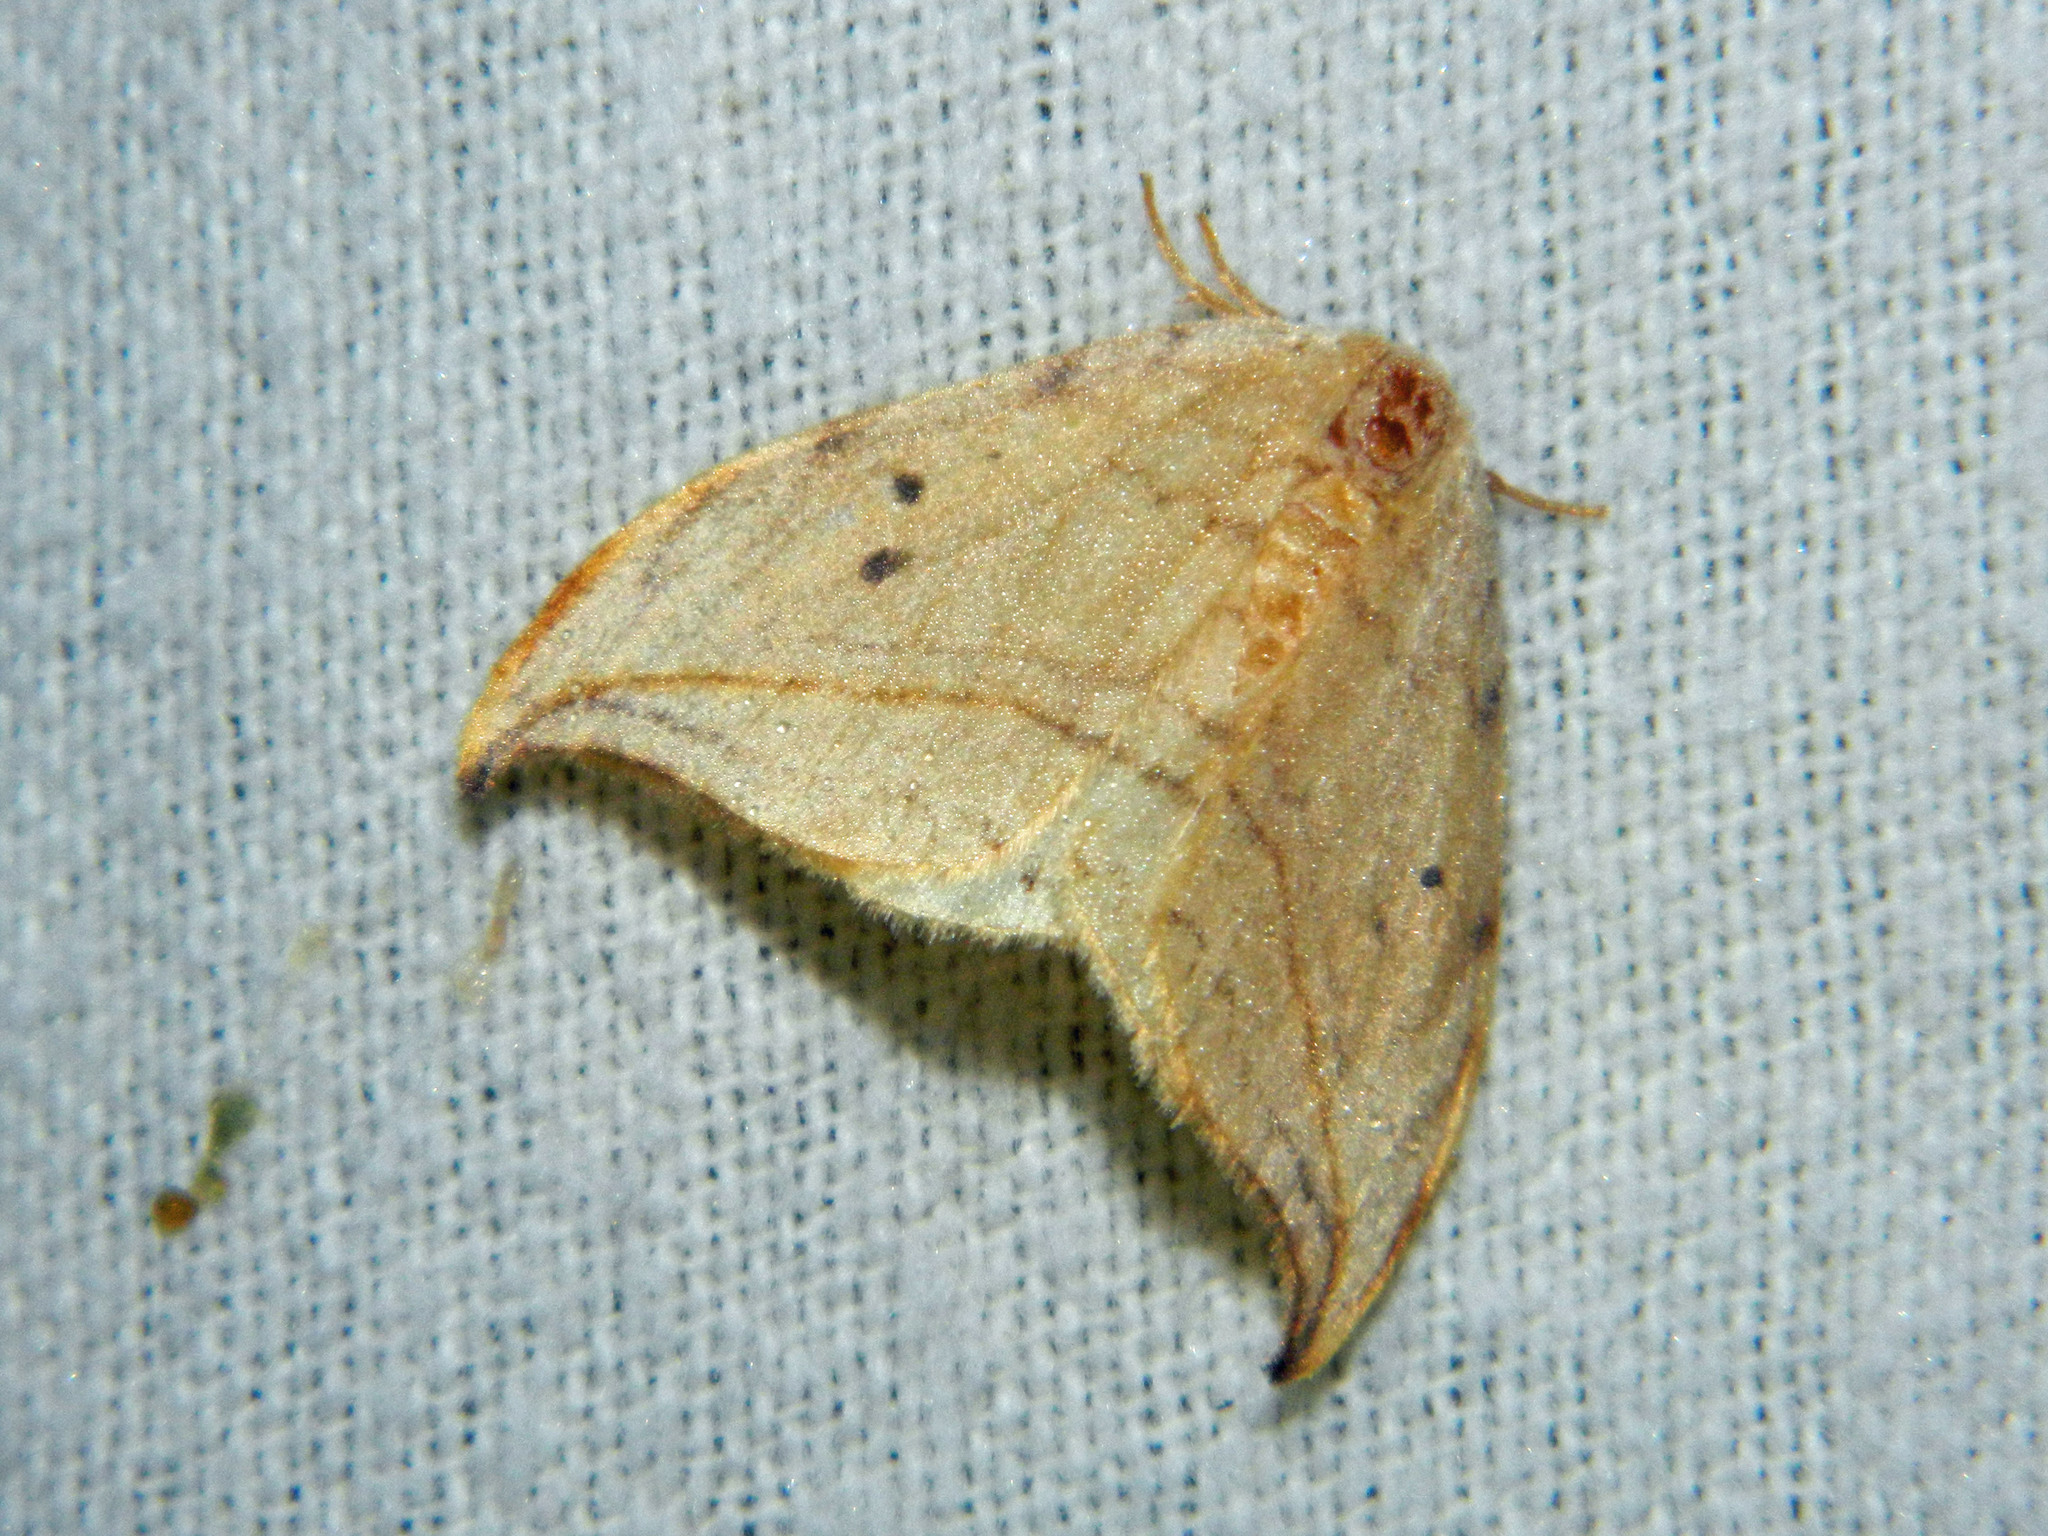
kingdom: Animalia
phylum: Arthropoda
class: Insecta
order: Lepidoptera
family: Drepanidae
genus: Drepana
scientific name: Drepana arcuata
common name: Arched hooktip moth
